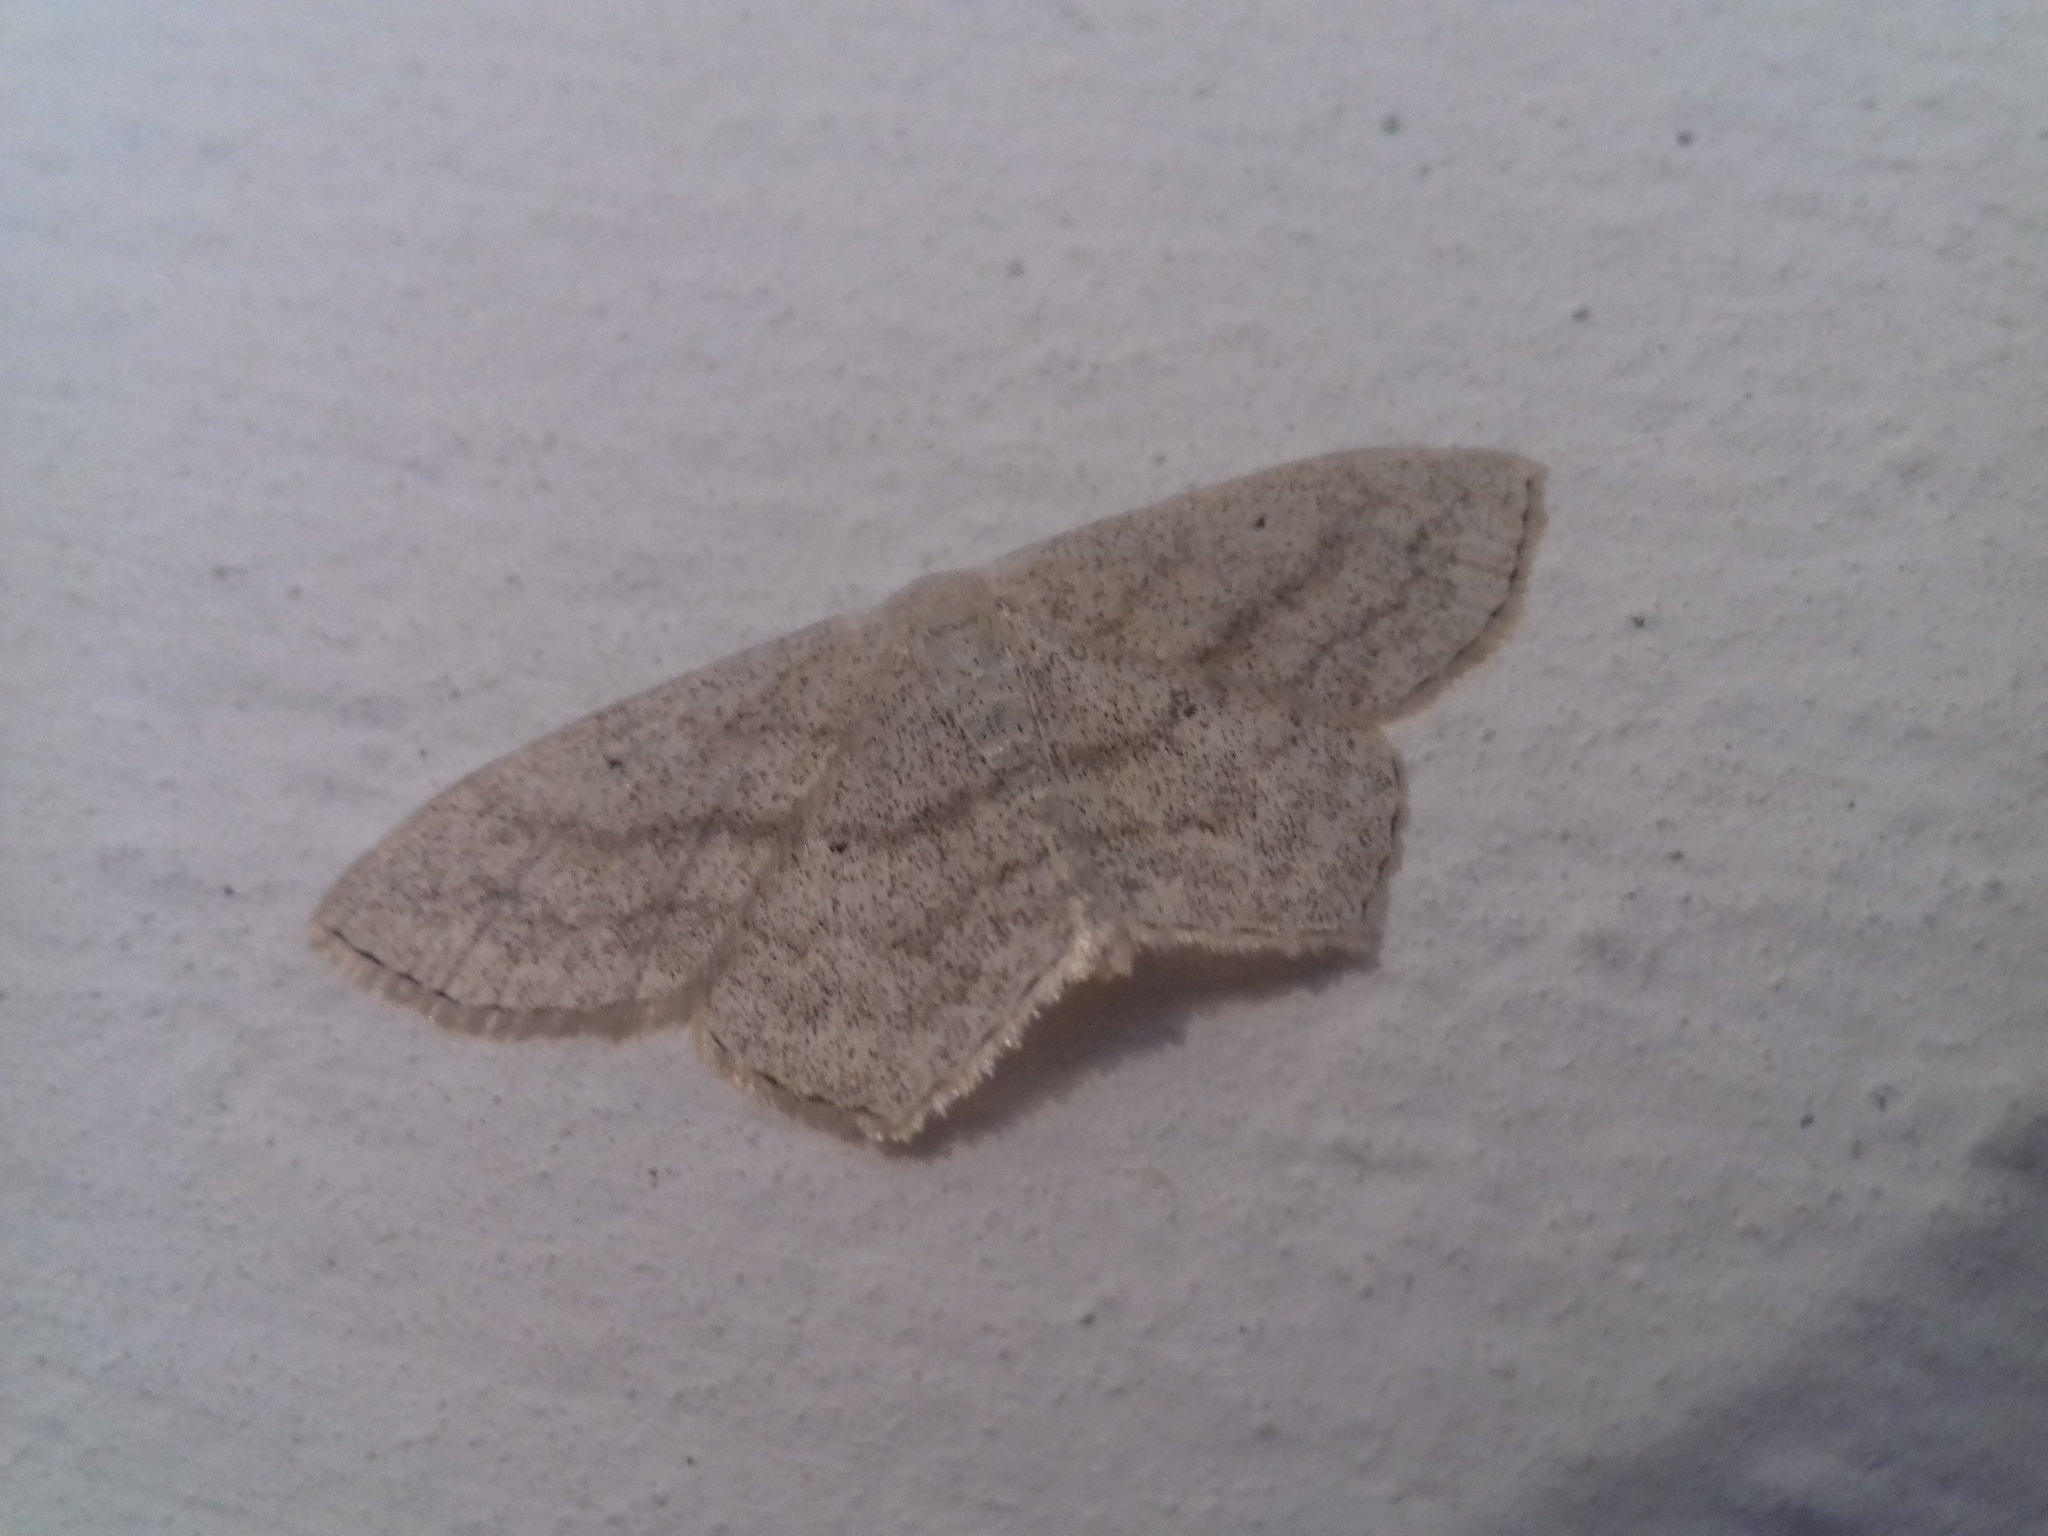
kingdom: Animalia
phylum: Arthropoda
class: Insecta
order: Lepidoptera
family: Geometridae
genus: Scopula
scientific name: Scopula nigropunctata
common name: Sub-angled wave
